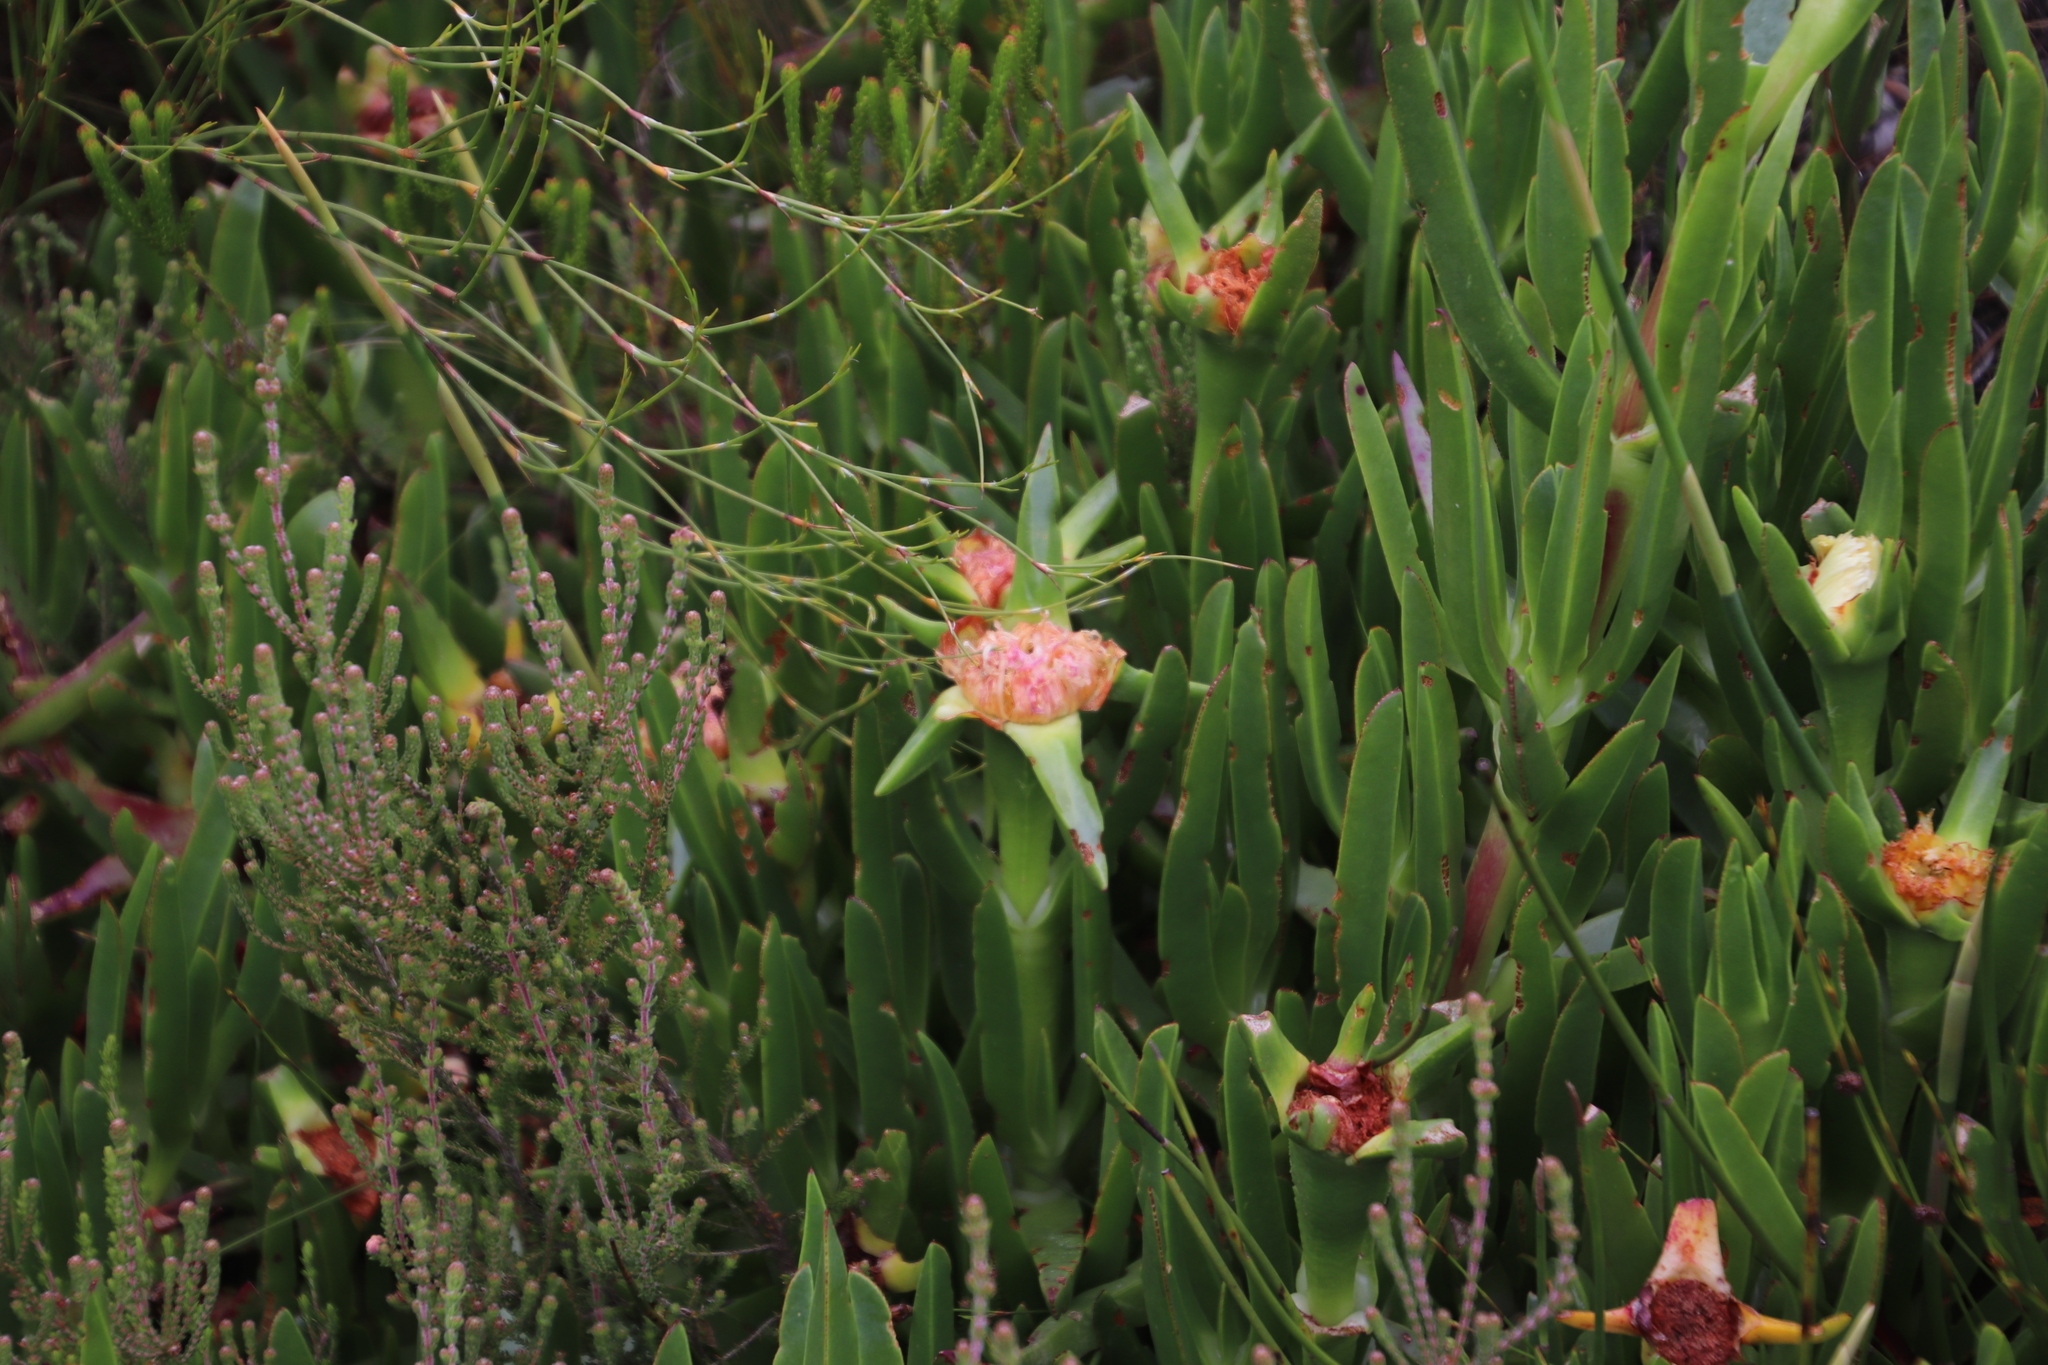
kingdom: Plantae
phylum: Tracheophyta
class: Magnoliopsida
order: Caryophyllales
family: Aizoaceae
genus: Carpobrotus
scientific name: Carpobrotus edulis
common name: Hottentot-fig
